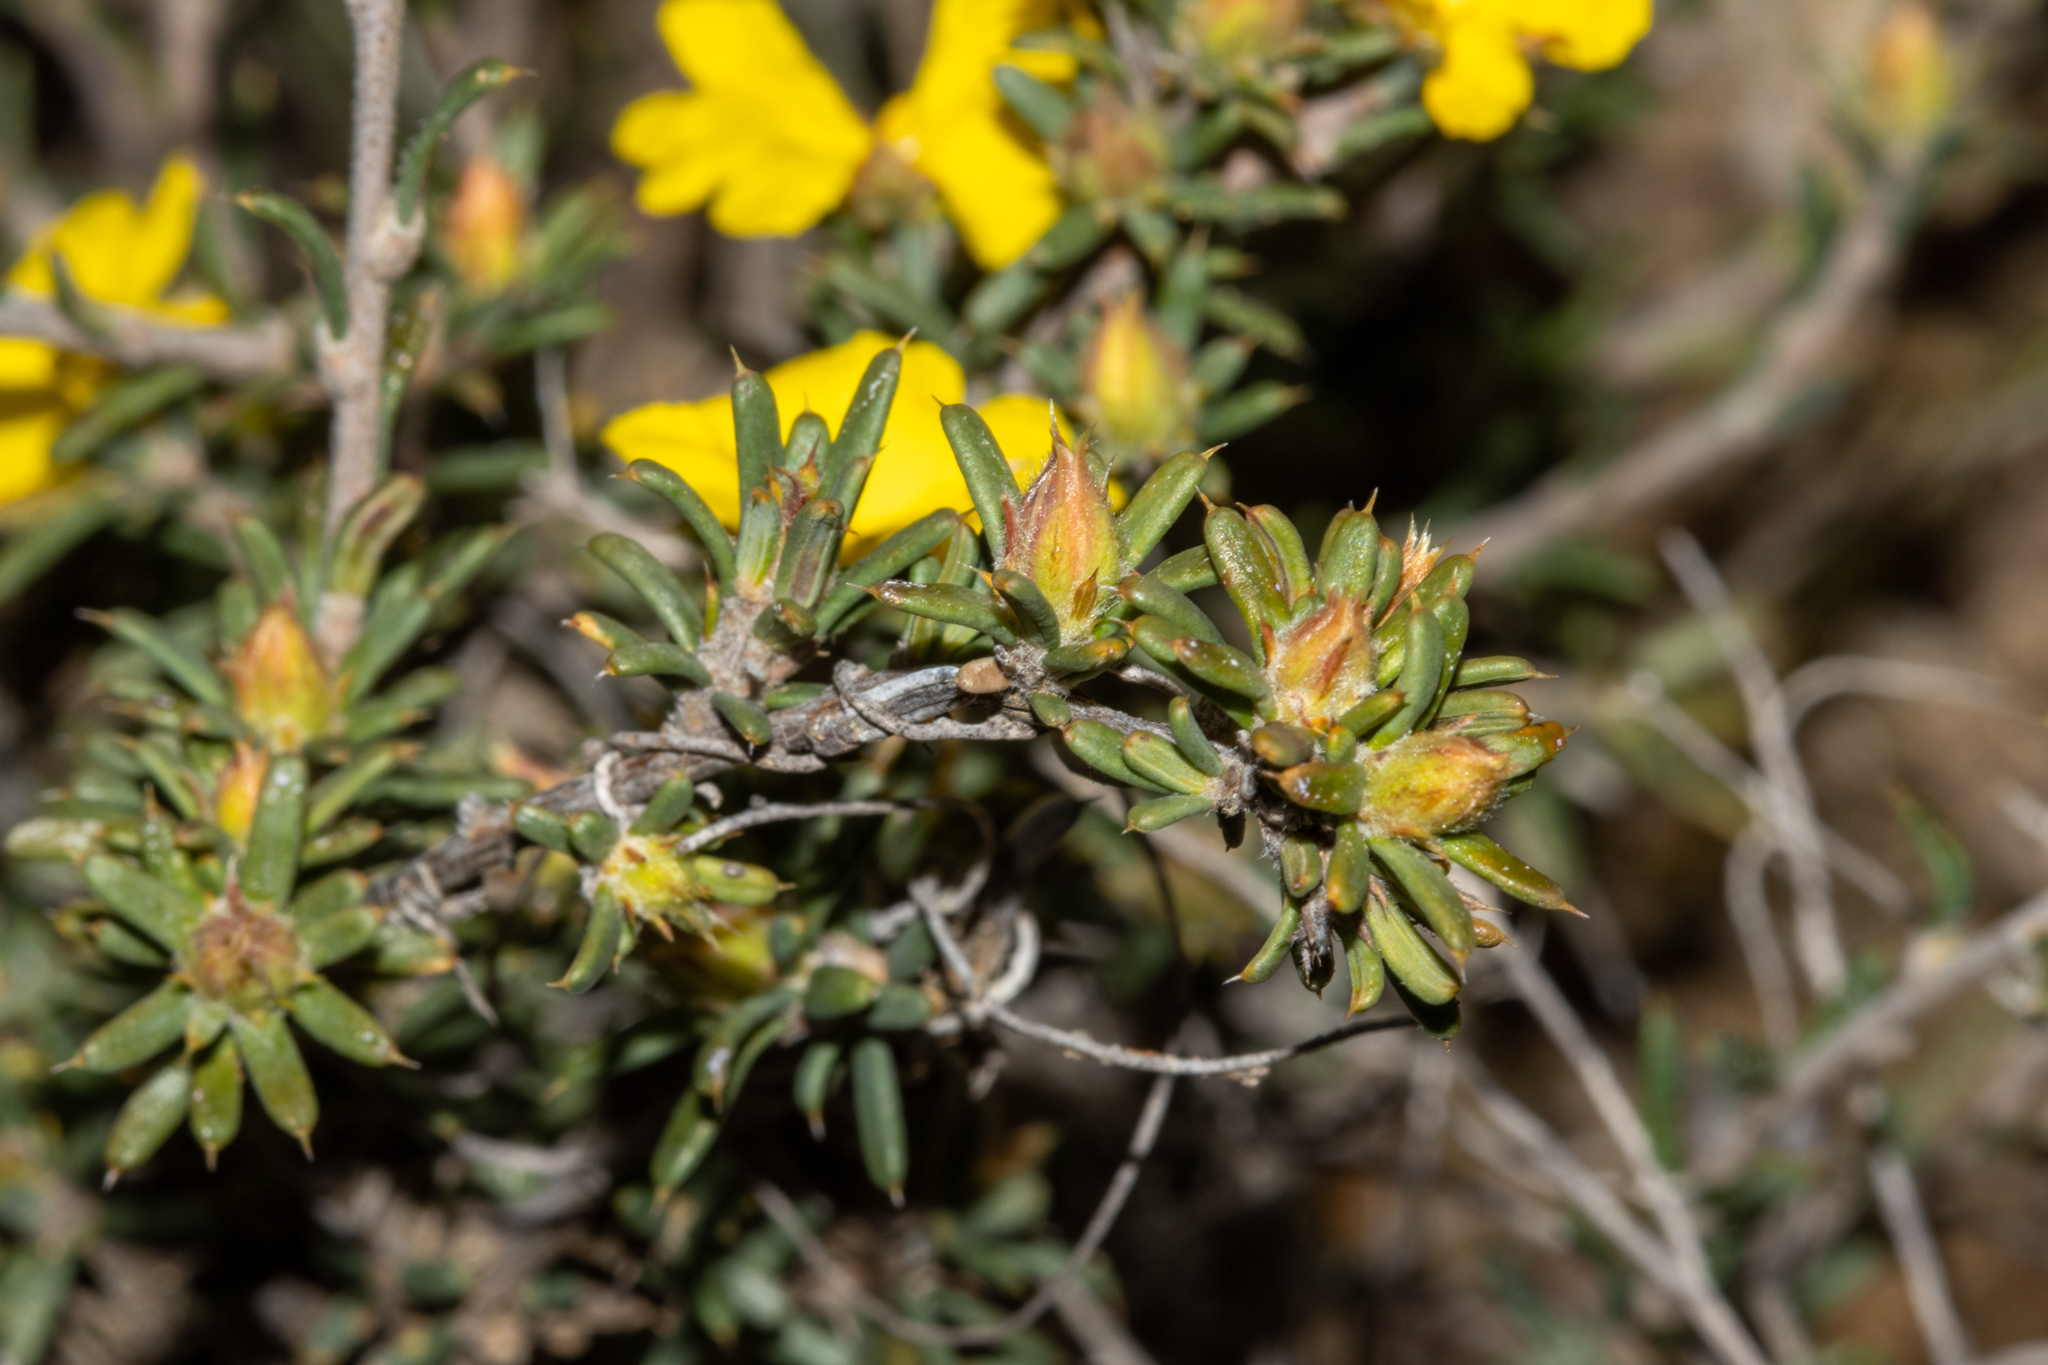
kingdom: Plantae
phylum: Tracheophyta
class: Magnoliopsida
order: Dilleniales
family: Dilleniaceae
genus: Hibbertia
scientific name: Hibbertia
